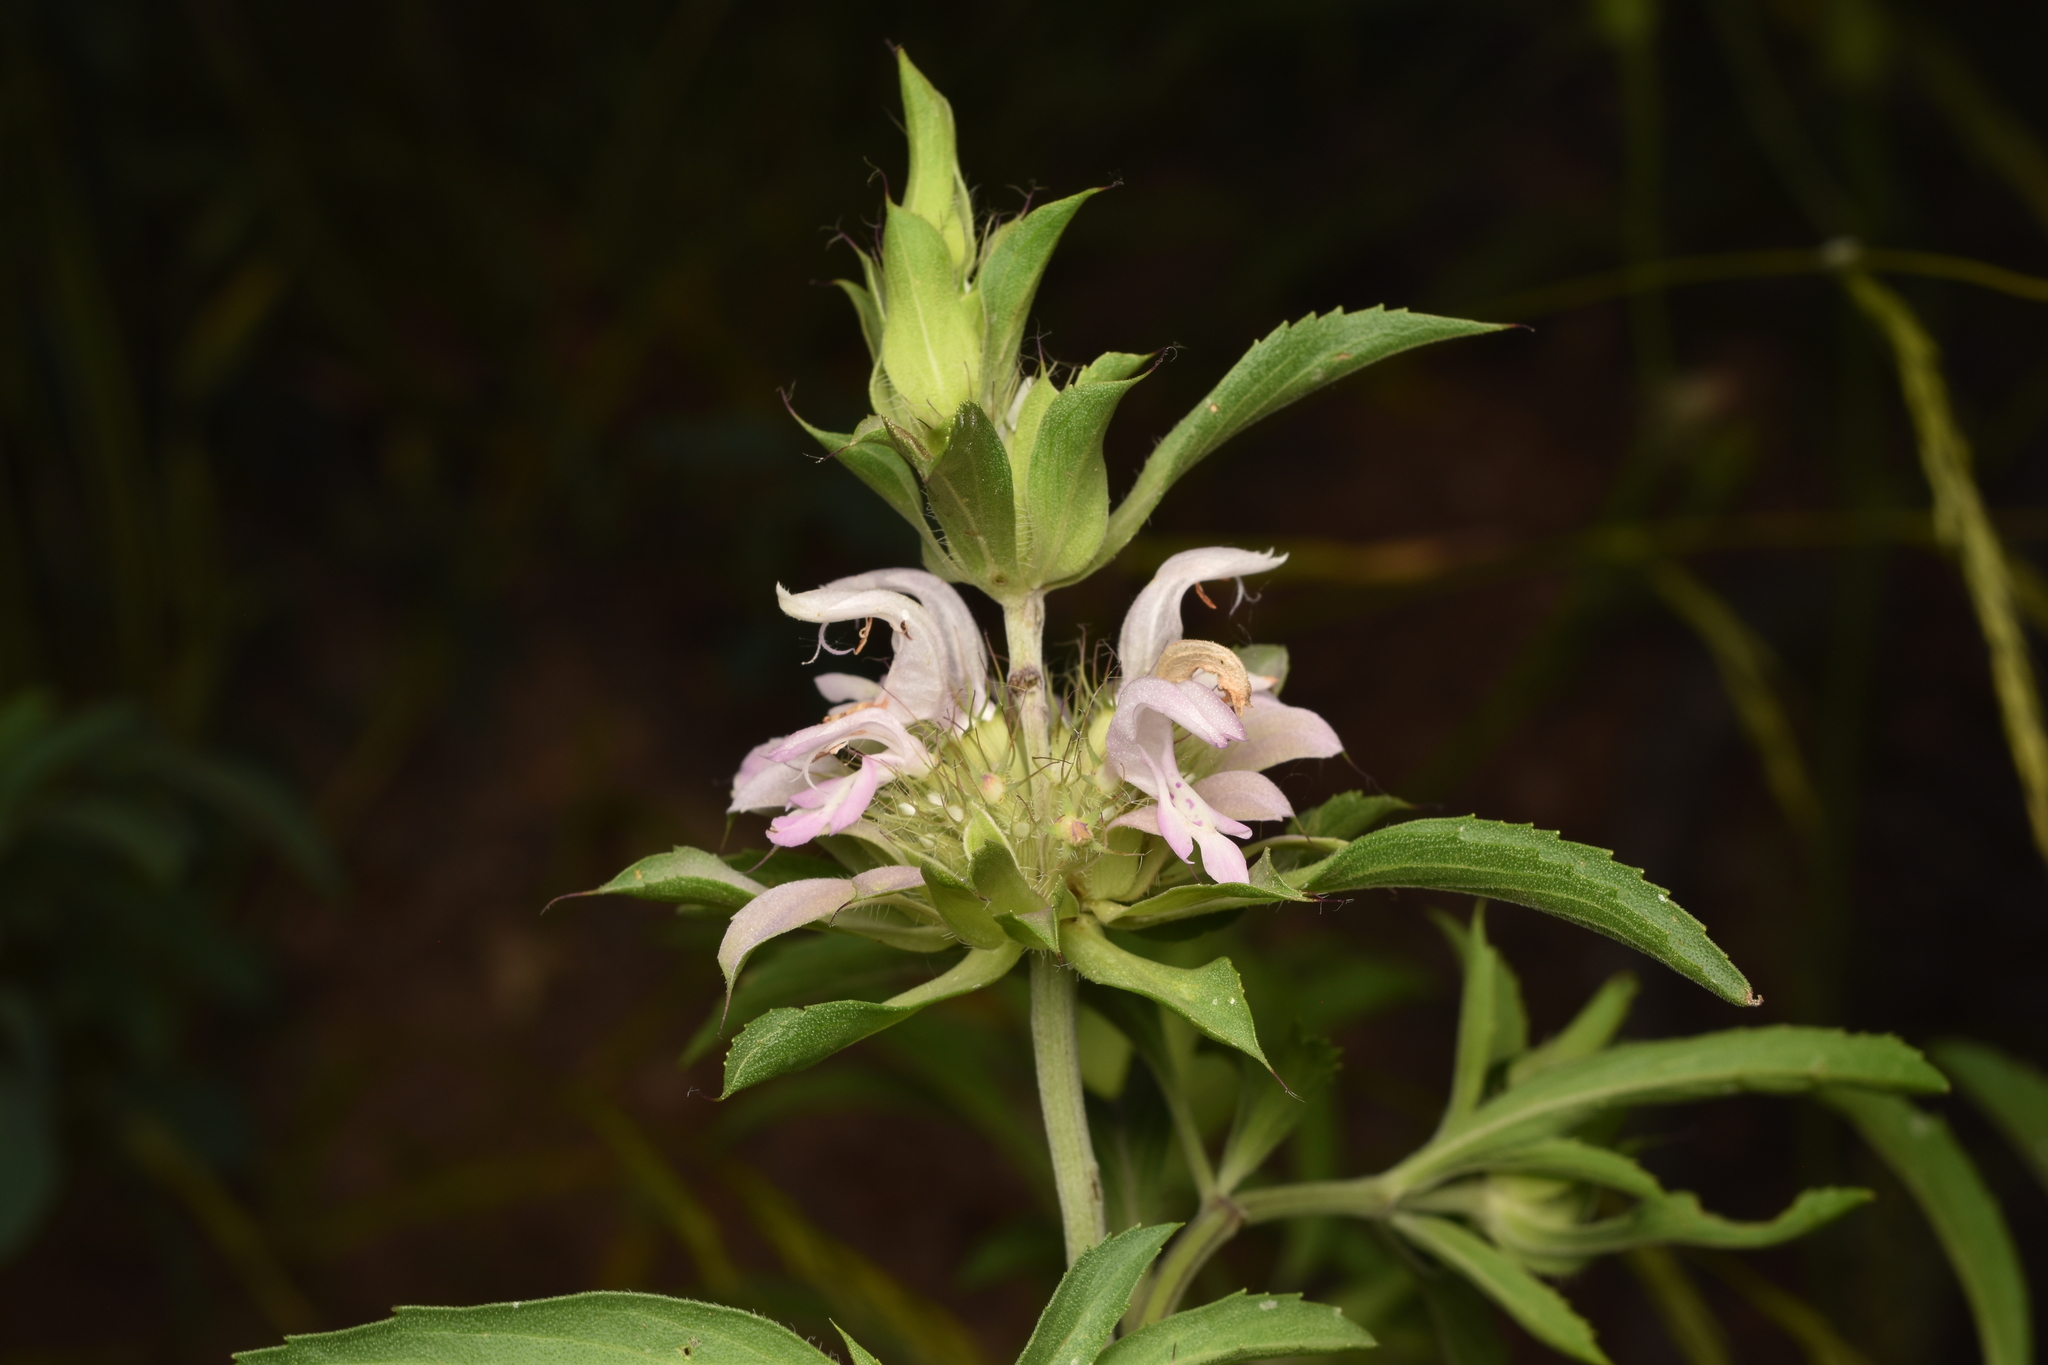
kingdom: Plantae
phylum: Tracheophyta
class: Magnoliopsida
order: Lamiales
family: Lamiaceae
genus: Monarda
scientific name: Monarda citriodora
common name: Lemon beebalm
